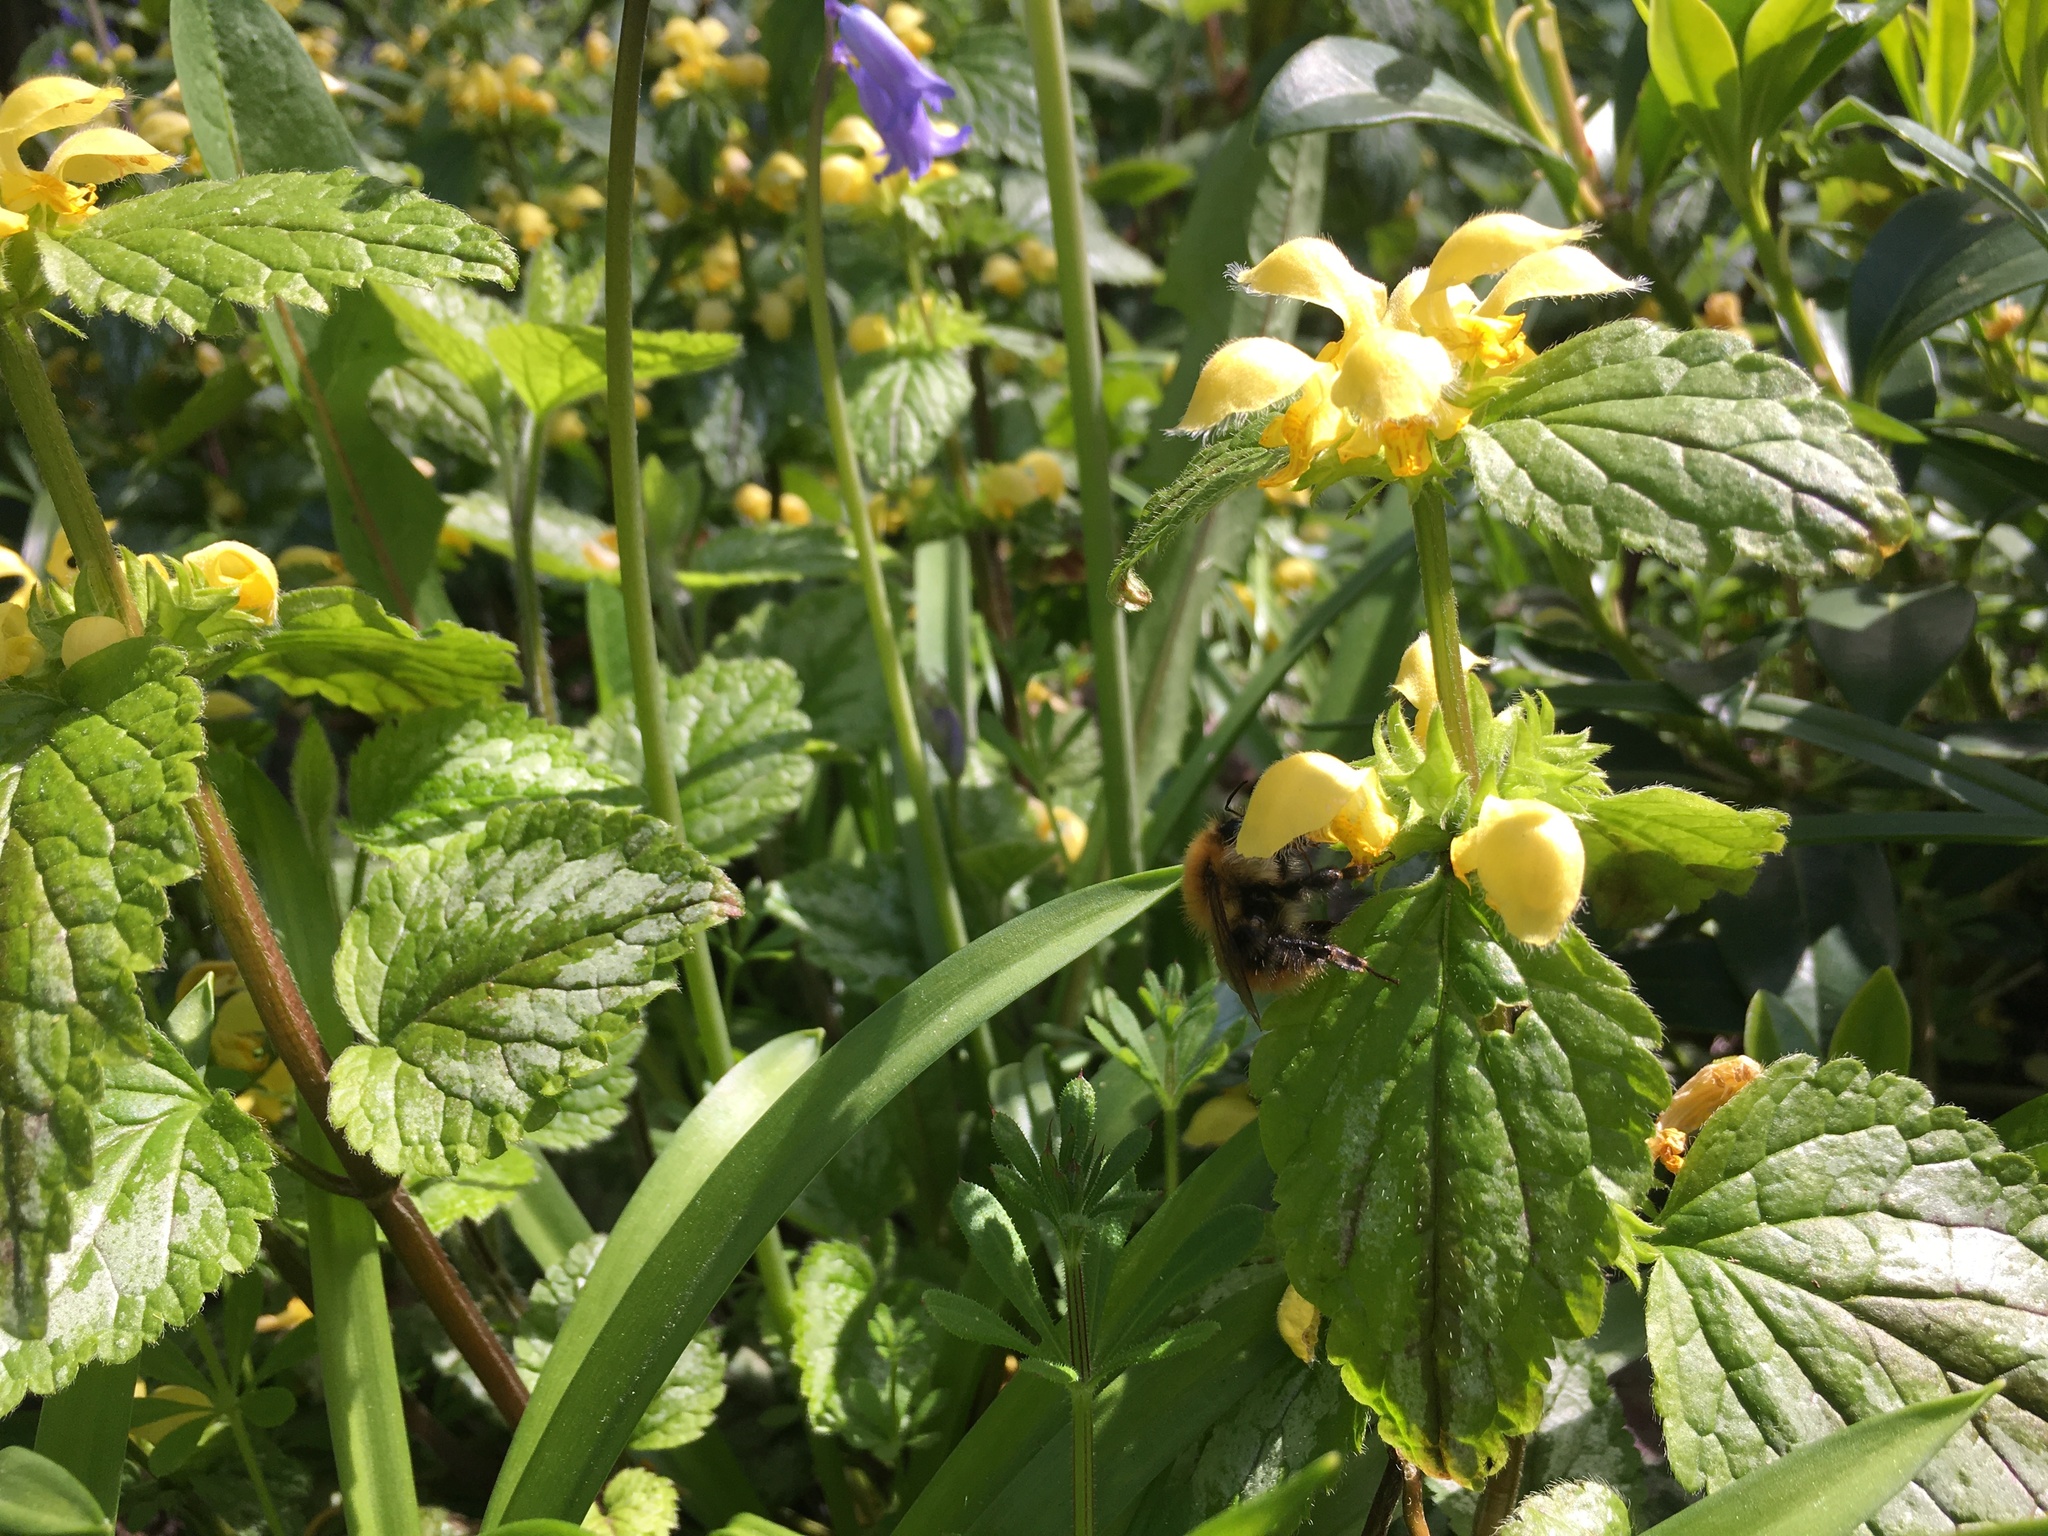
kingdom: Plantae
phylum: Tracheophyta
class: Magnoliopsida
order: Lamiales
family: Lamiaceae
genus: Lamium
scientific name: Lamium galeobdolon
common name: Yellow archangel
